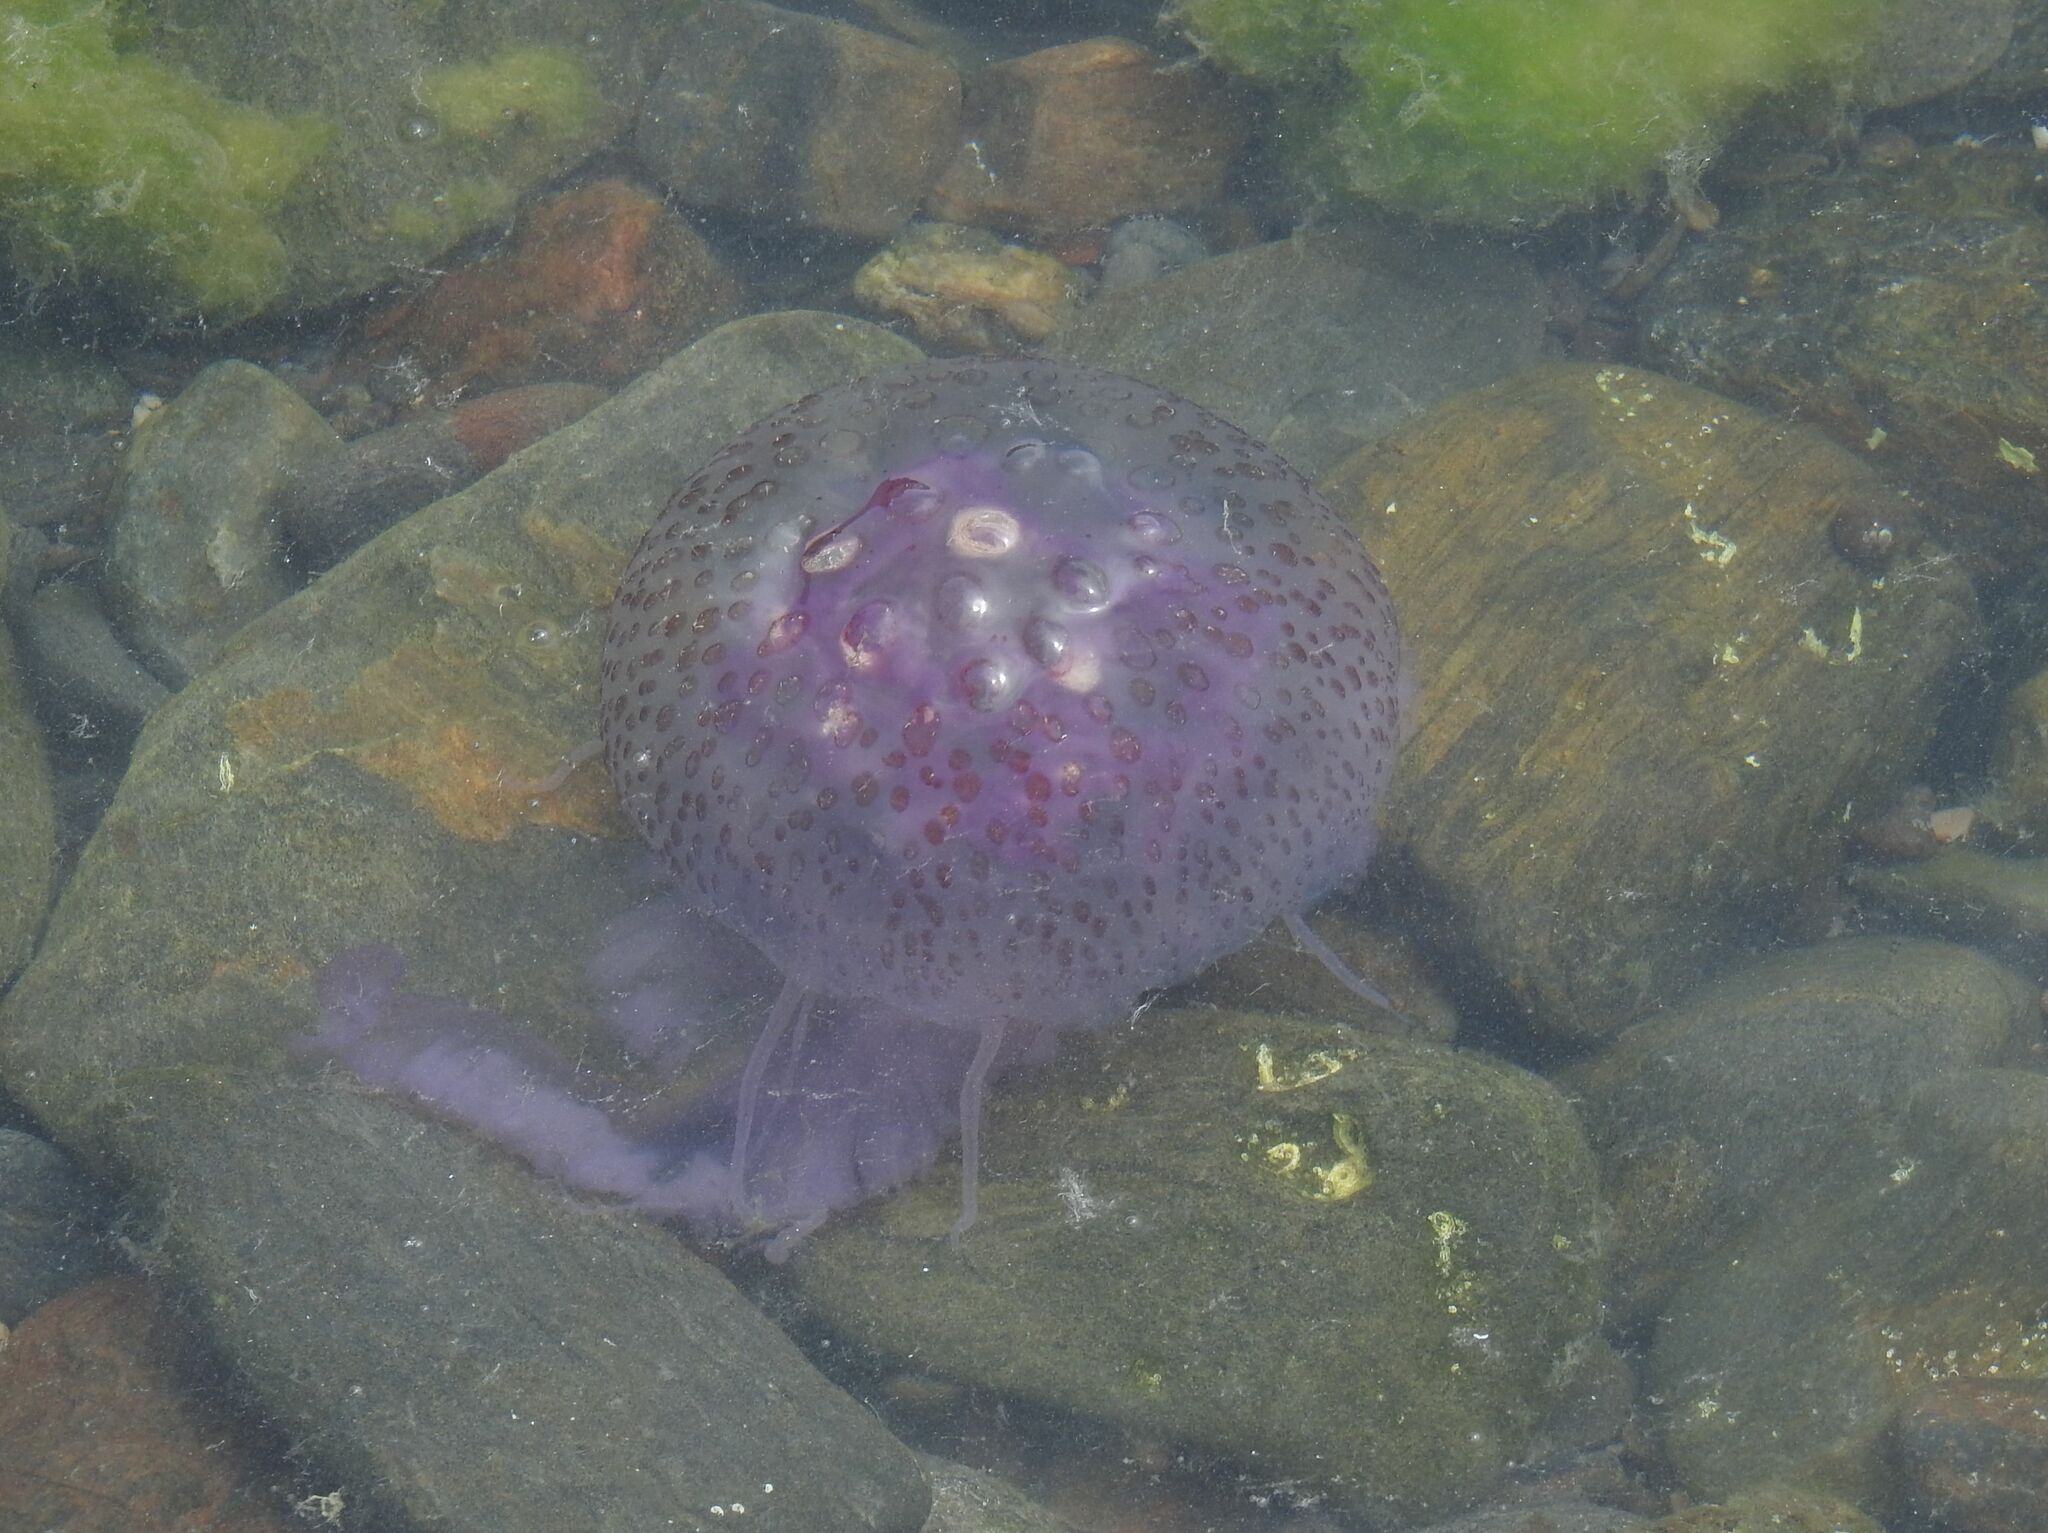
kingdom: Animalia
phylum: Cnidaria
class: Scyphozoa
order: Semaeostomeae
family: Pelagiidae
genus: Pelagia
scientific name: Pelagia noctiluca
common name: Mauve stinger
